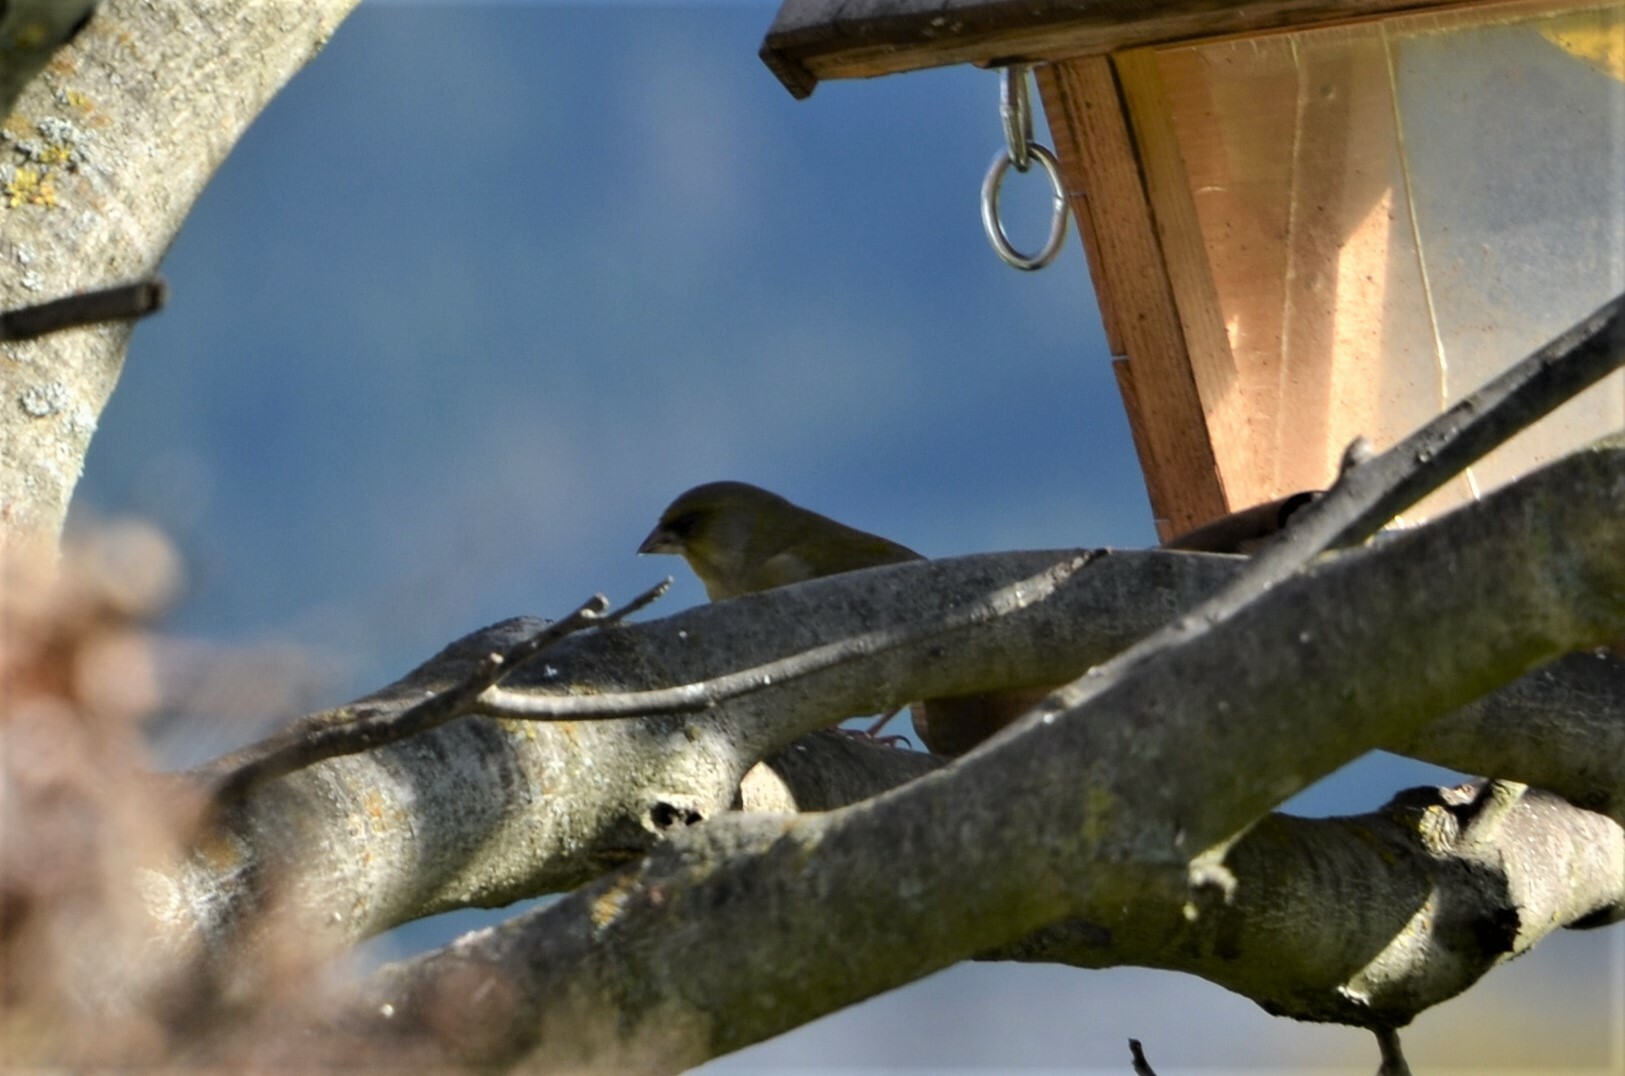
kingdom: Plantae
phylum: Tracheophyta
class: Liliopsida
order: Poales
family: Poaceae
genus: Chloris
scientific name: Chloris chloris
